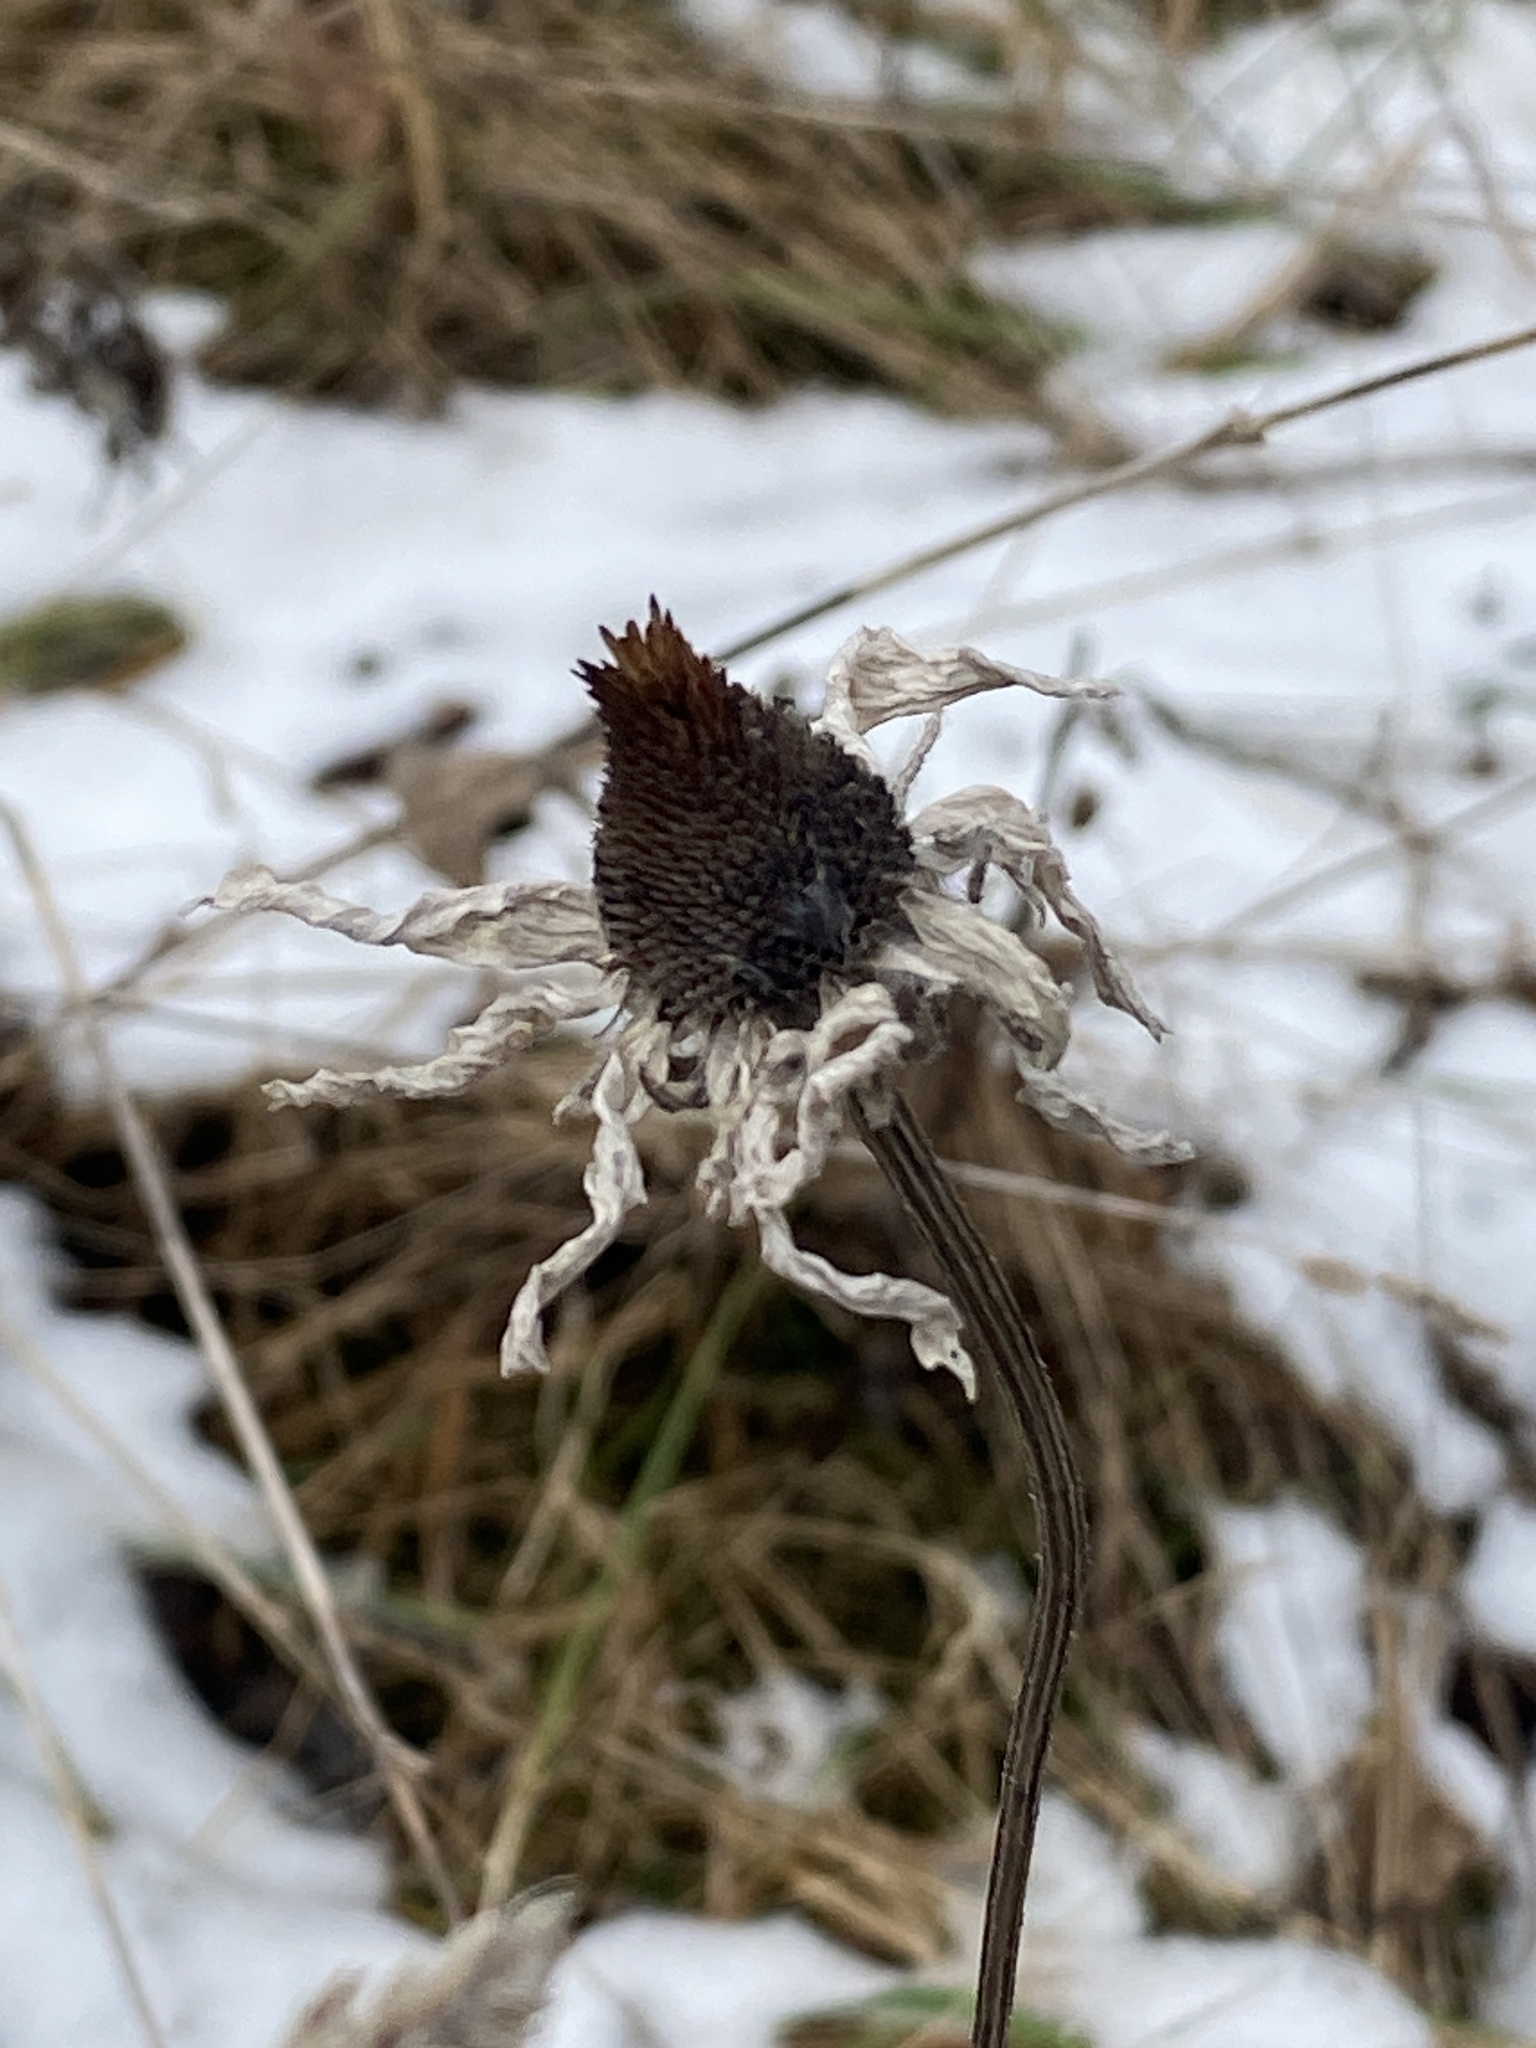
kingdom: Plantae
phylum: Tracheophyta
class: Magnoliopsida
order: Asterales
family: Asteraceae
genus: Rudbeckia
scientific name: Rudbeckia hirta
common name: Black-eyed-susan
